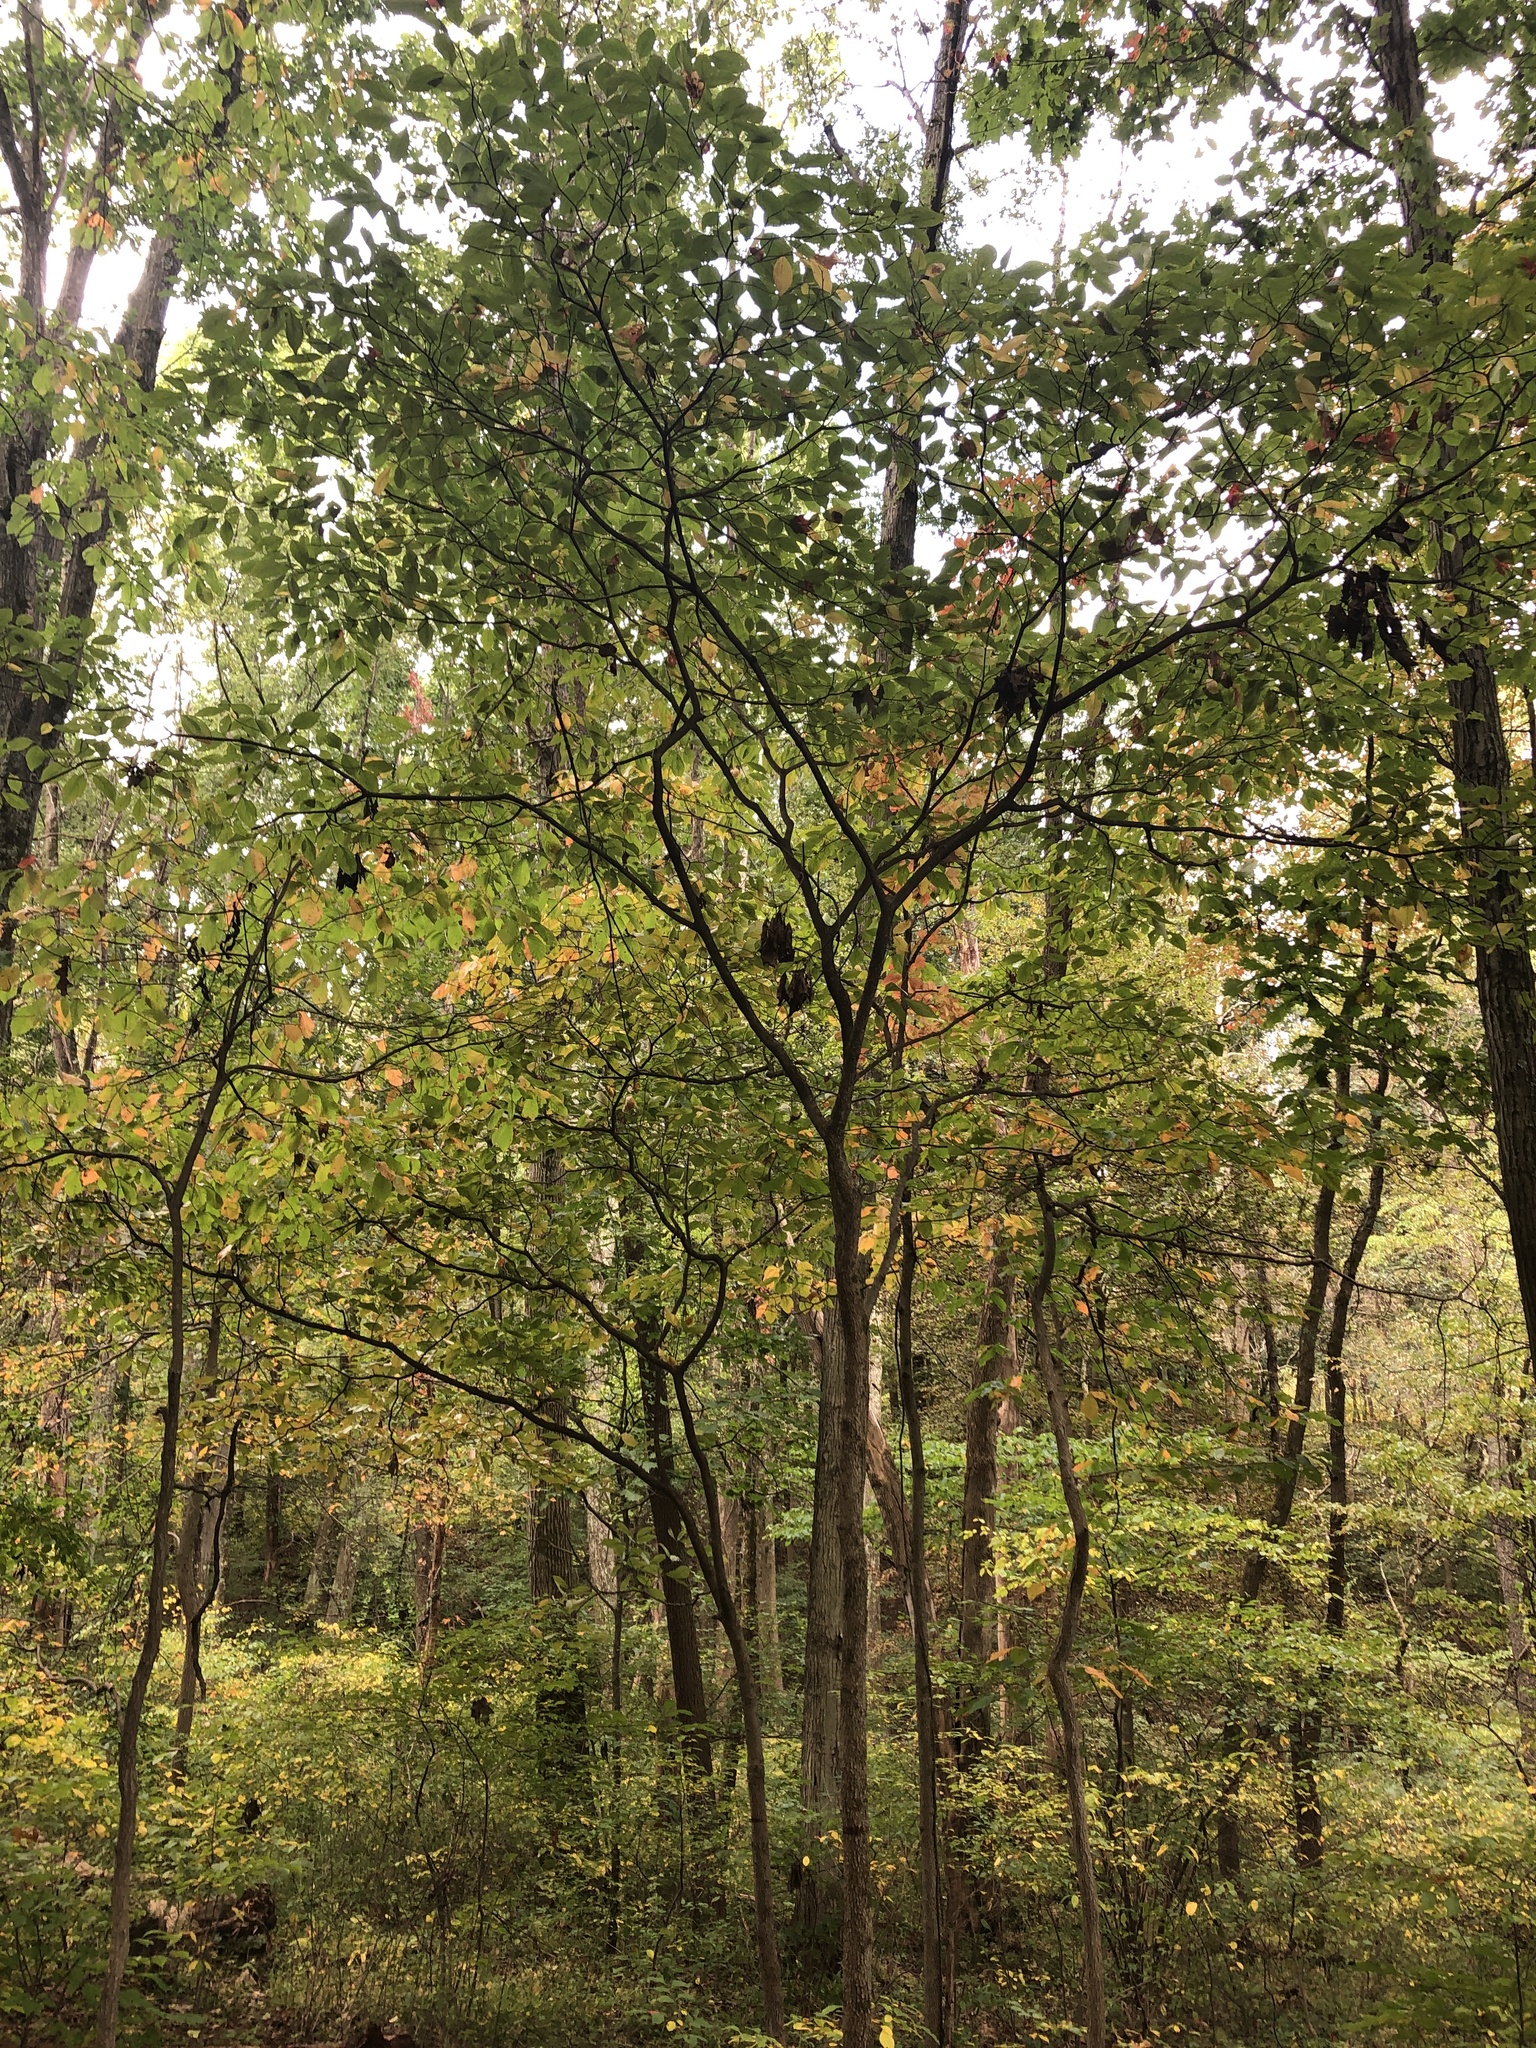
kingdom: Plantae
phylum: Tracheophyta
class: Magnoliopsida
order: Cornales
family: Cornaceae
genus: Cornus
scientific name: Cornus florida
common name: Flowering dogwood
